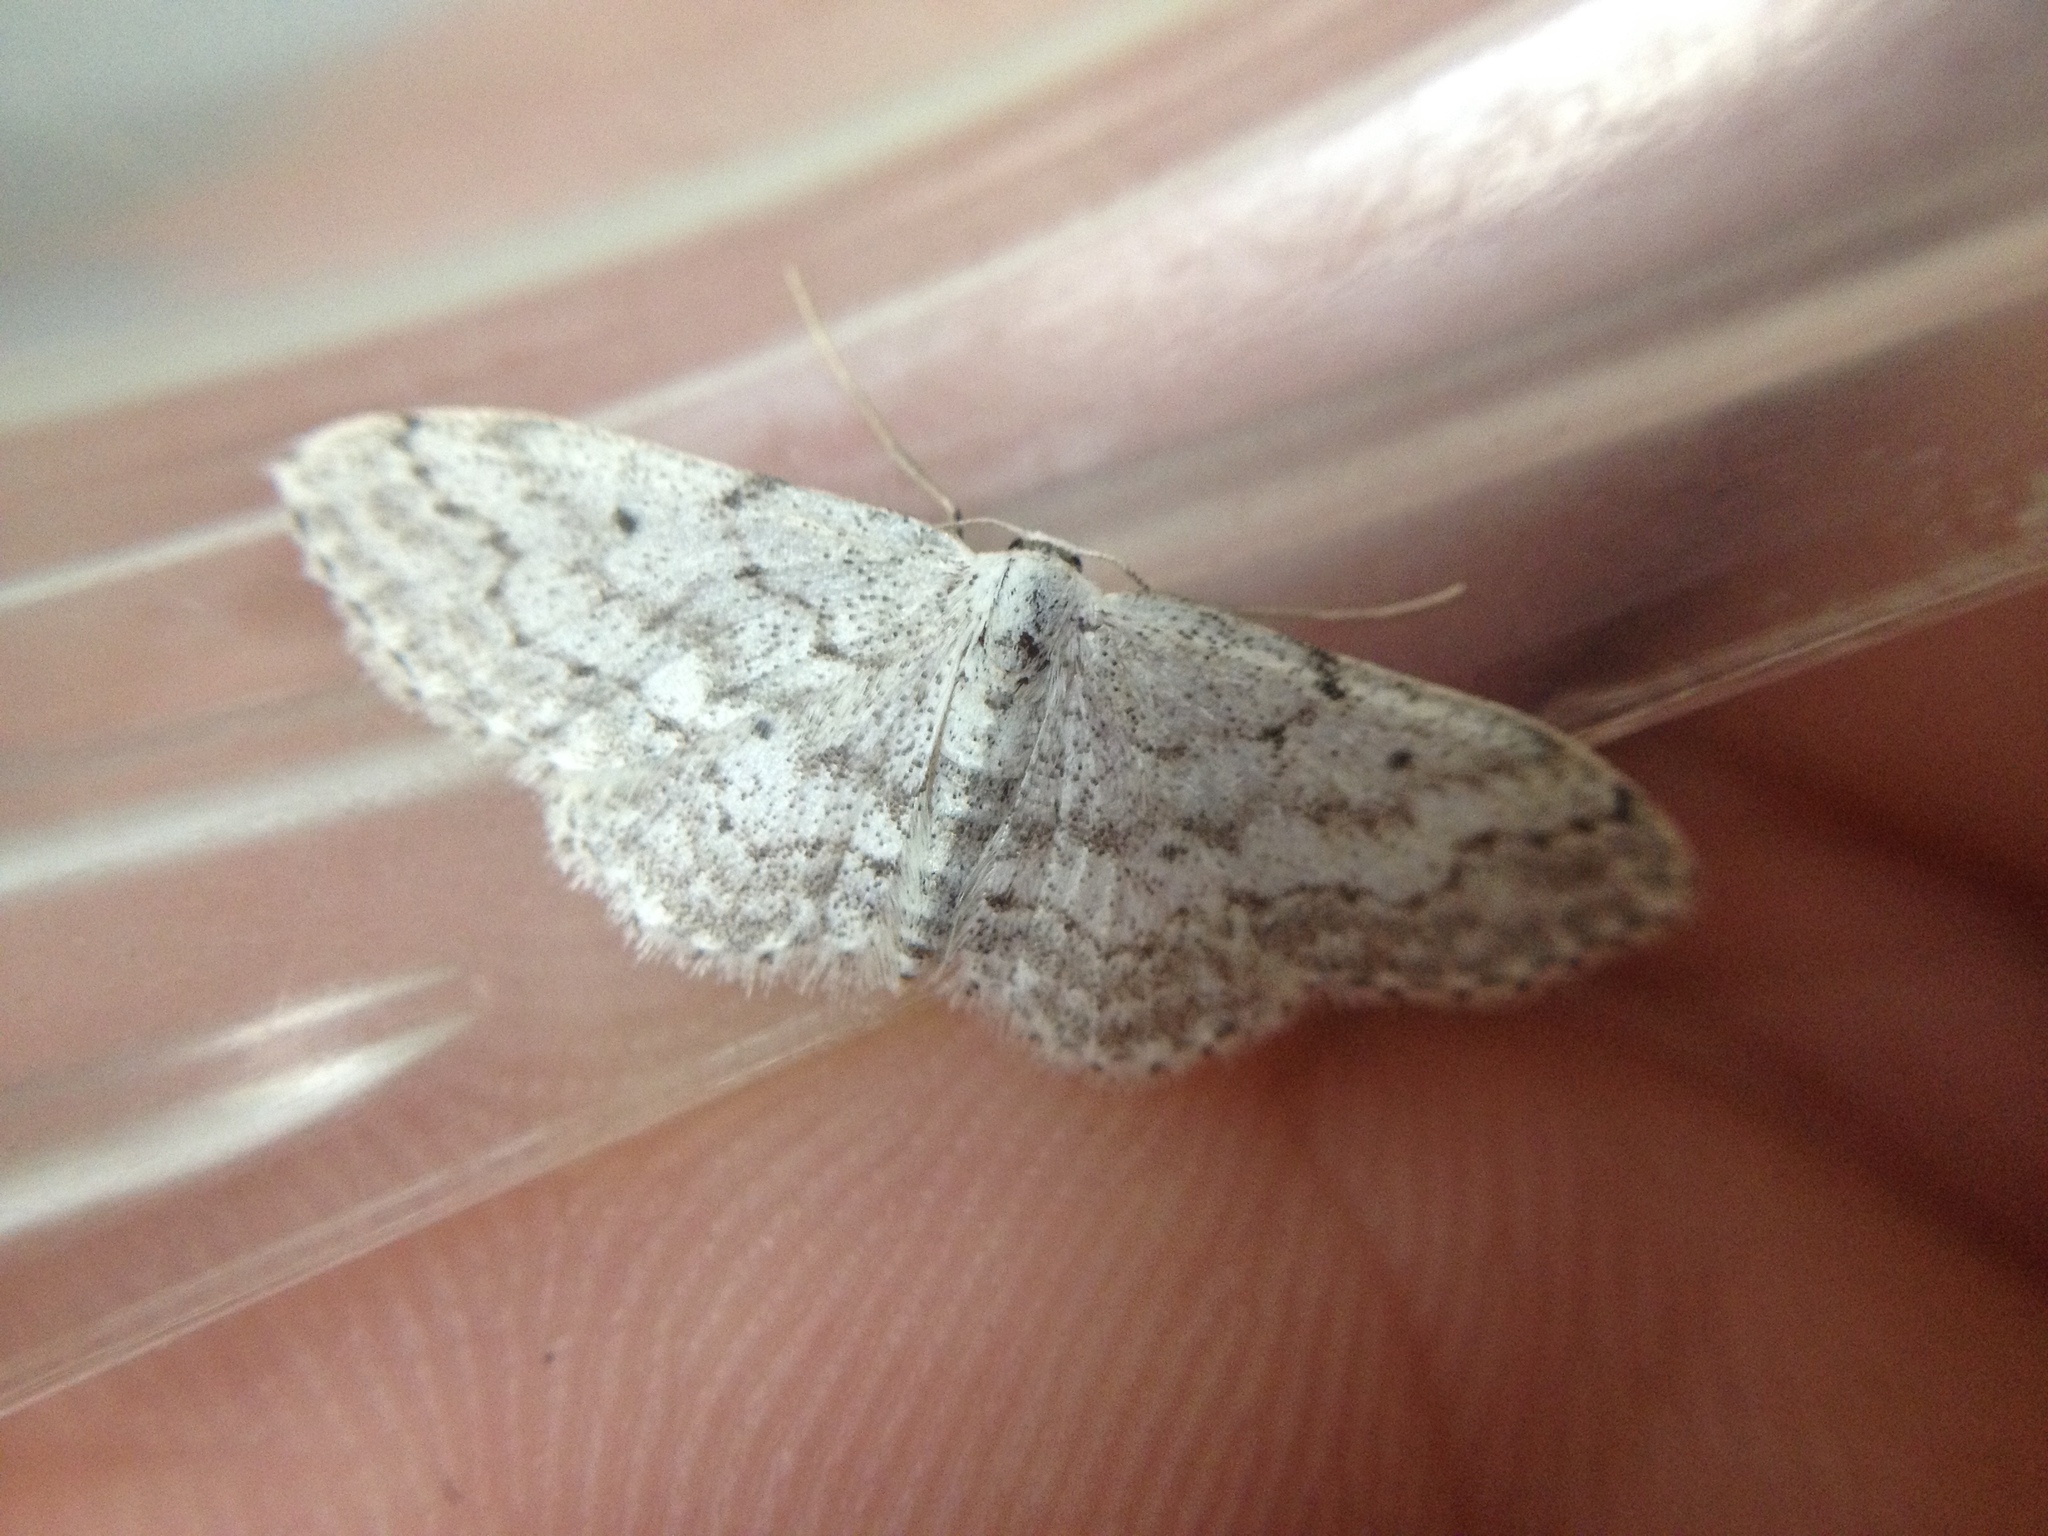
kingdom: Animalia
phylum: Arthropoda
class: Insecta
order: Lepidoptera
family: Geometridae
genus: Idaea
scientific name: Idaea seriata
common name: Small dusty wave
